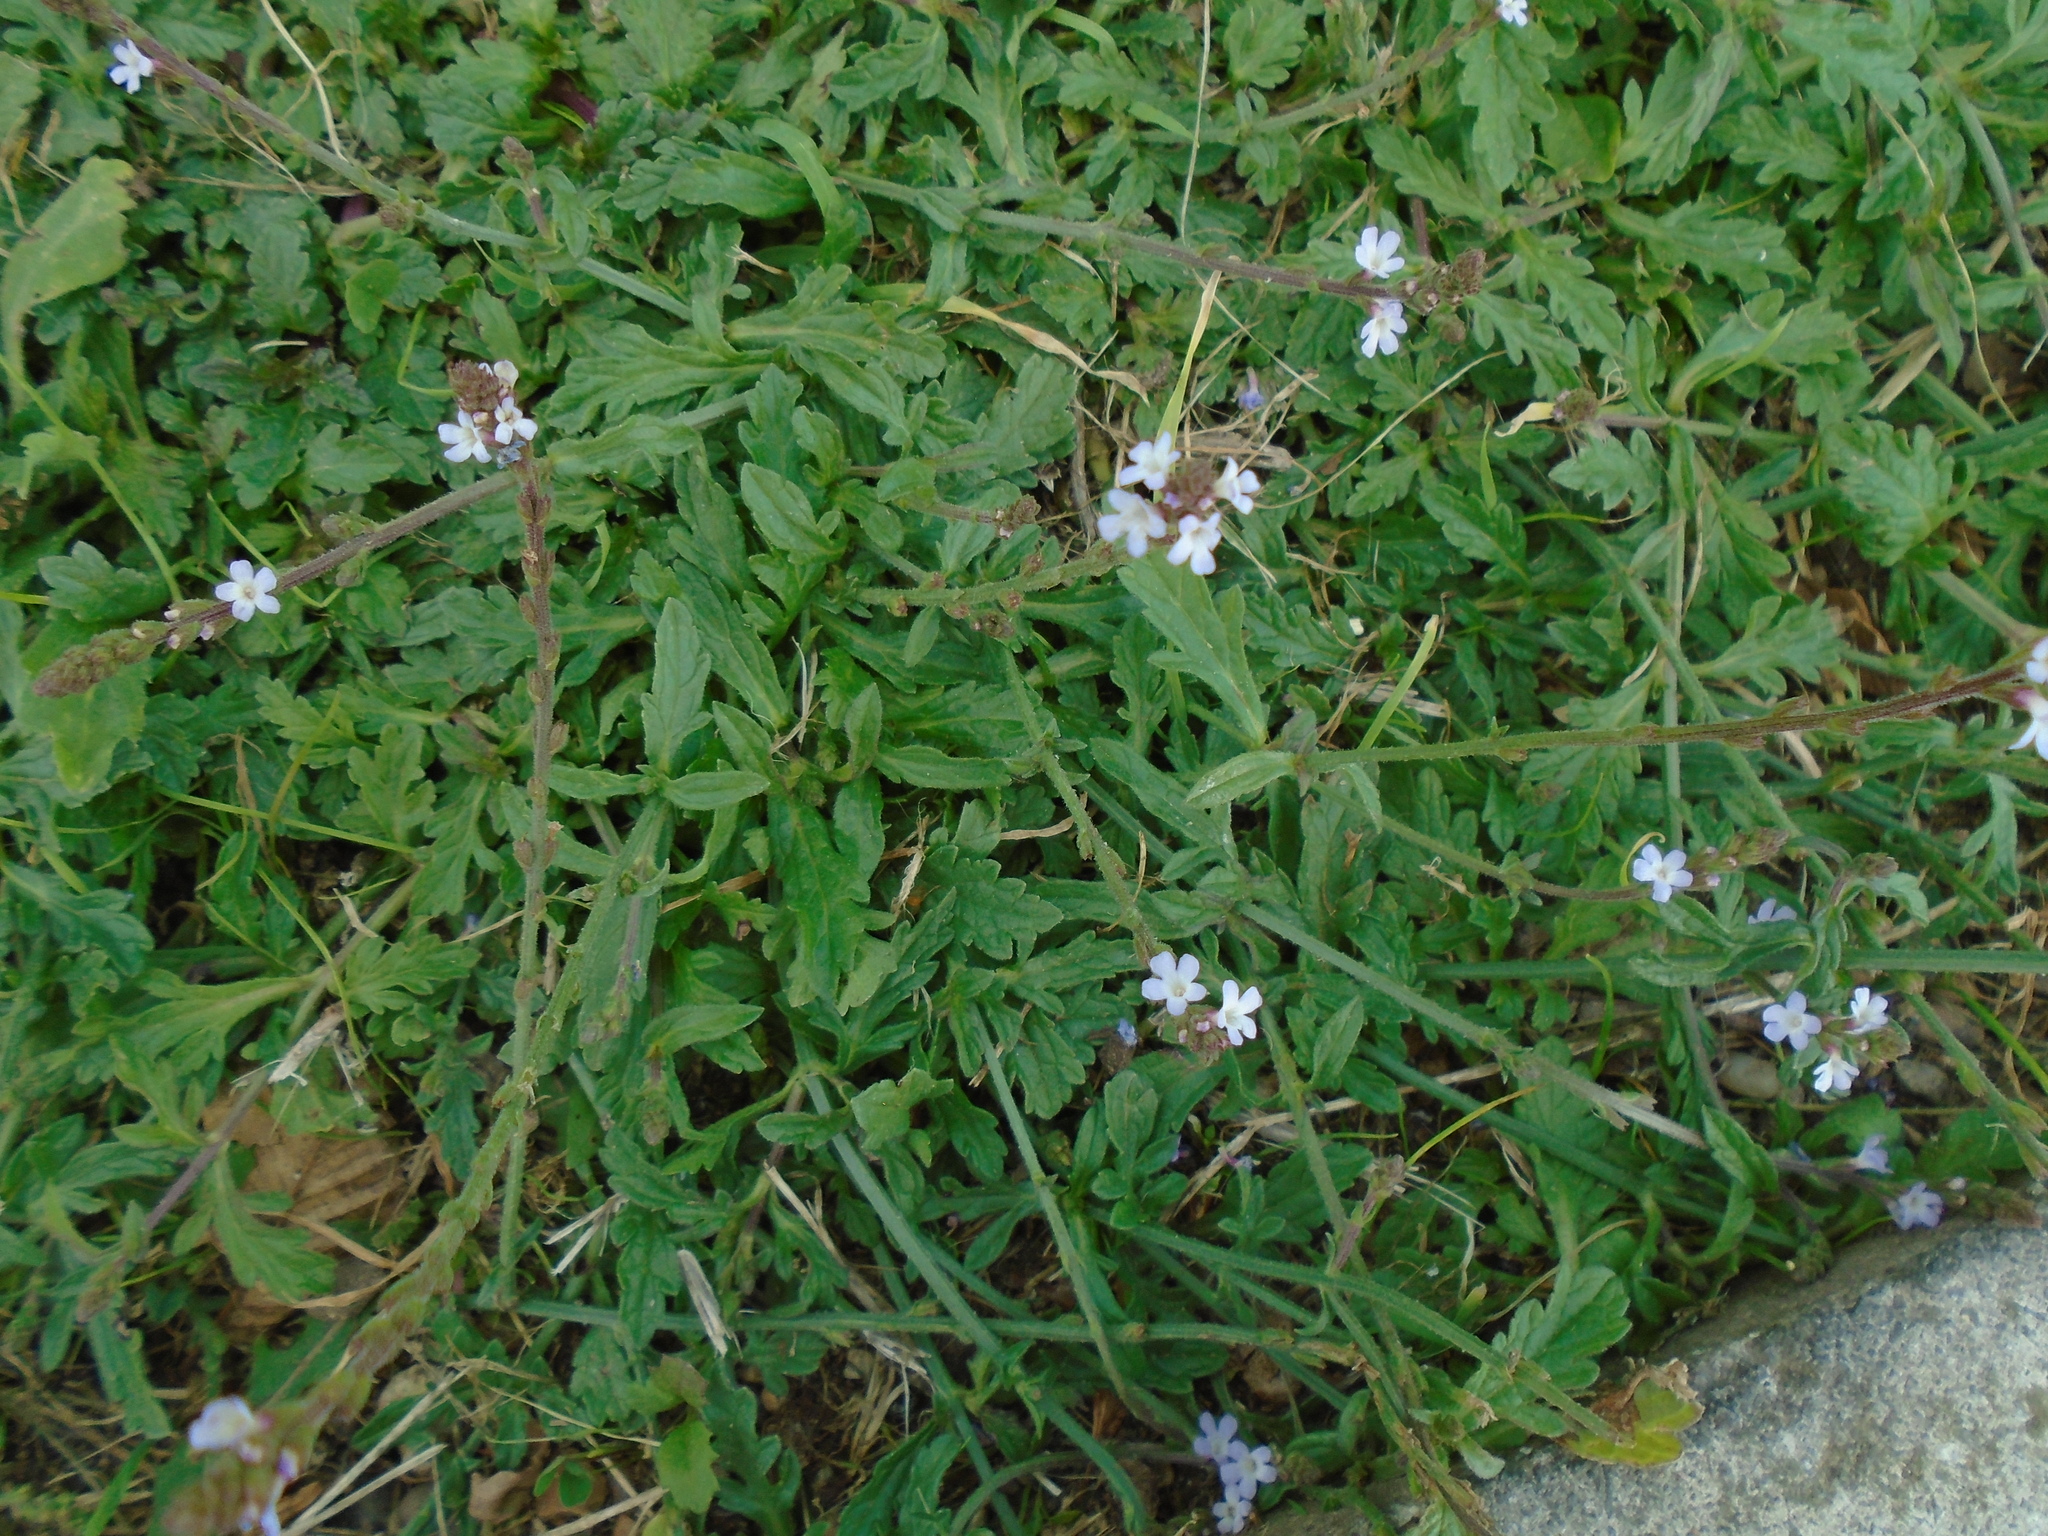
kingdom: Plantae
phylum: Tracheophyta
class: Magnoliopsida
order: Lamiales
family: Verbenaceae
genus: Verbena
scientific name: Verbena officinalis
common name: Vervain
